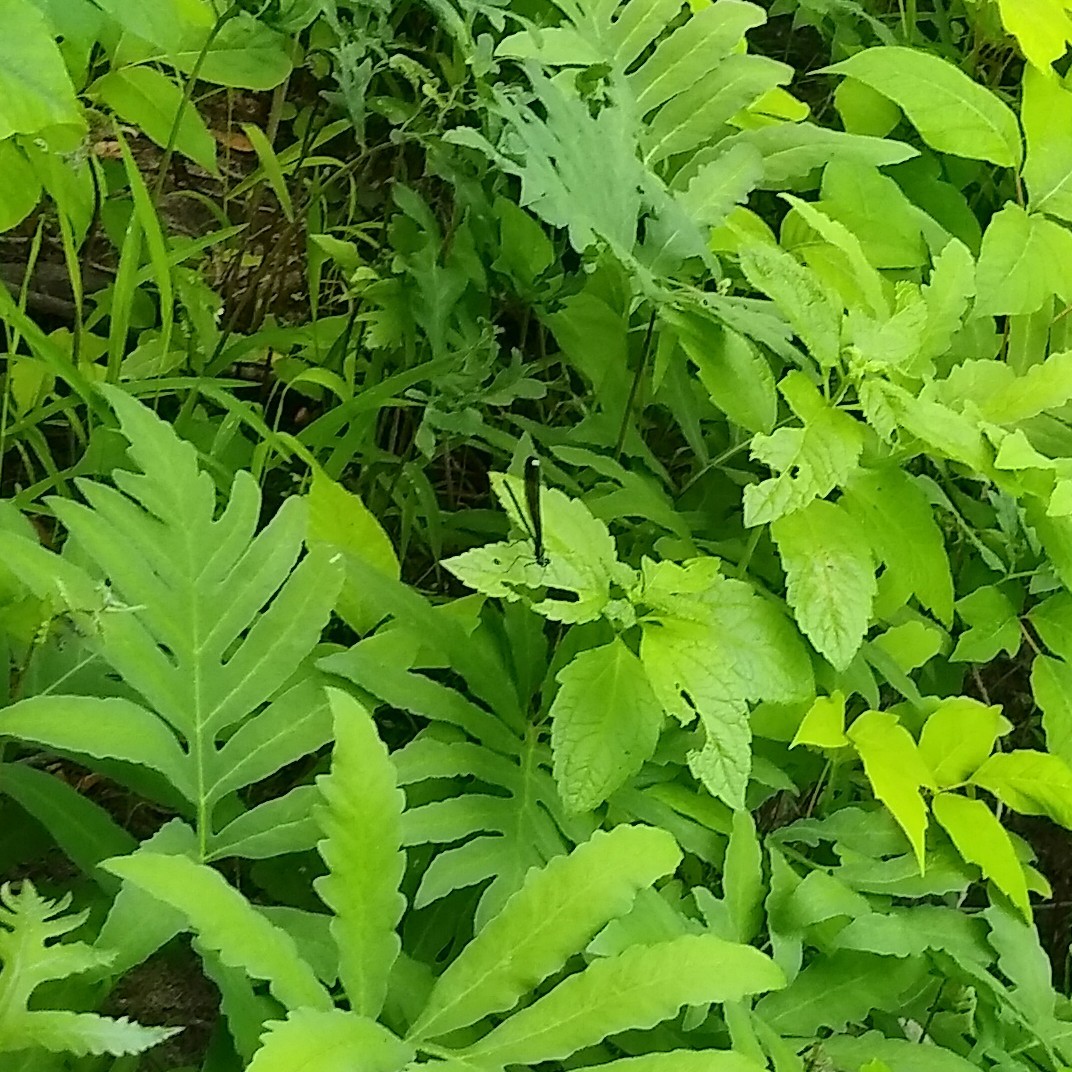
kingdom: Animalia
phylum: Arthropoda
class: Insecta
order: Odonata
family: Calopterygidae
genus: Calopteryx
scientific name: Calopteryx maculata
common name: Ebony jewelwing
